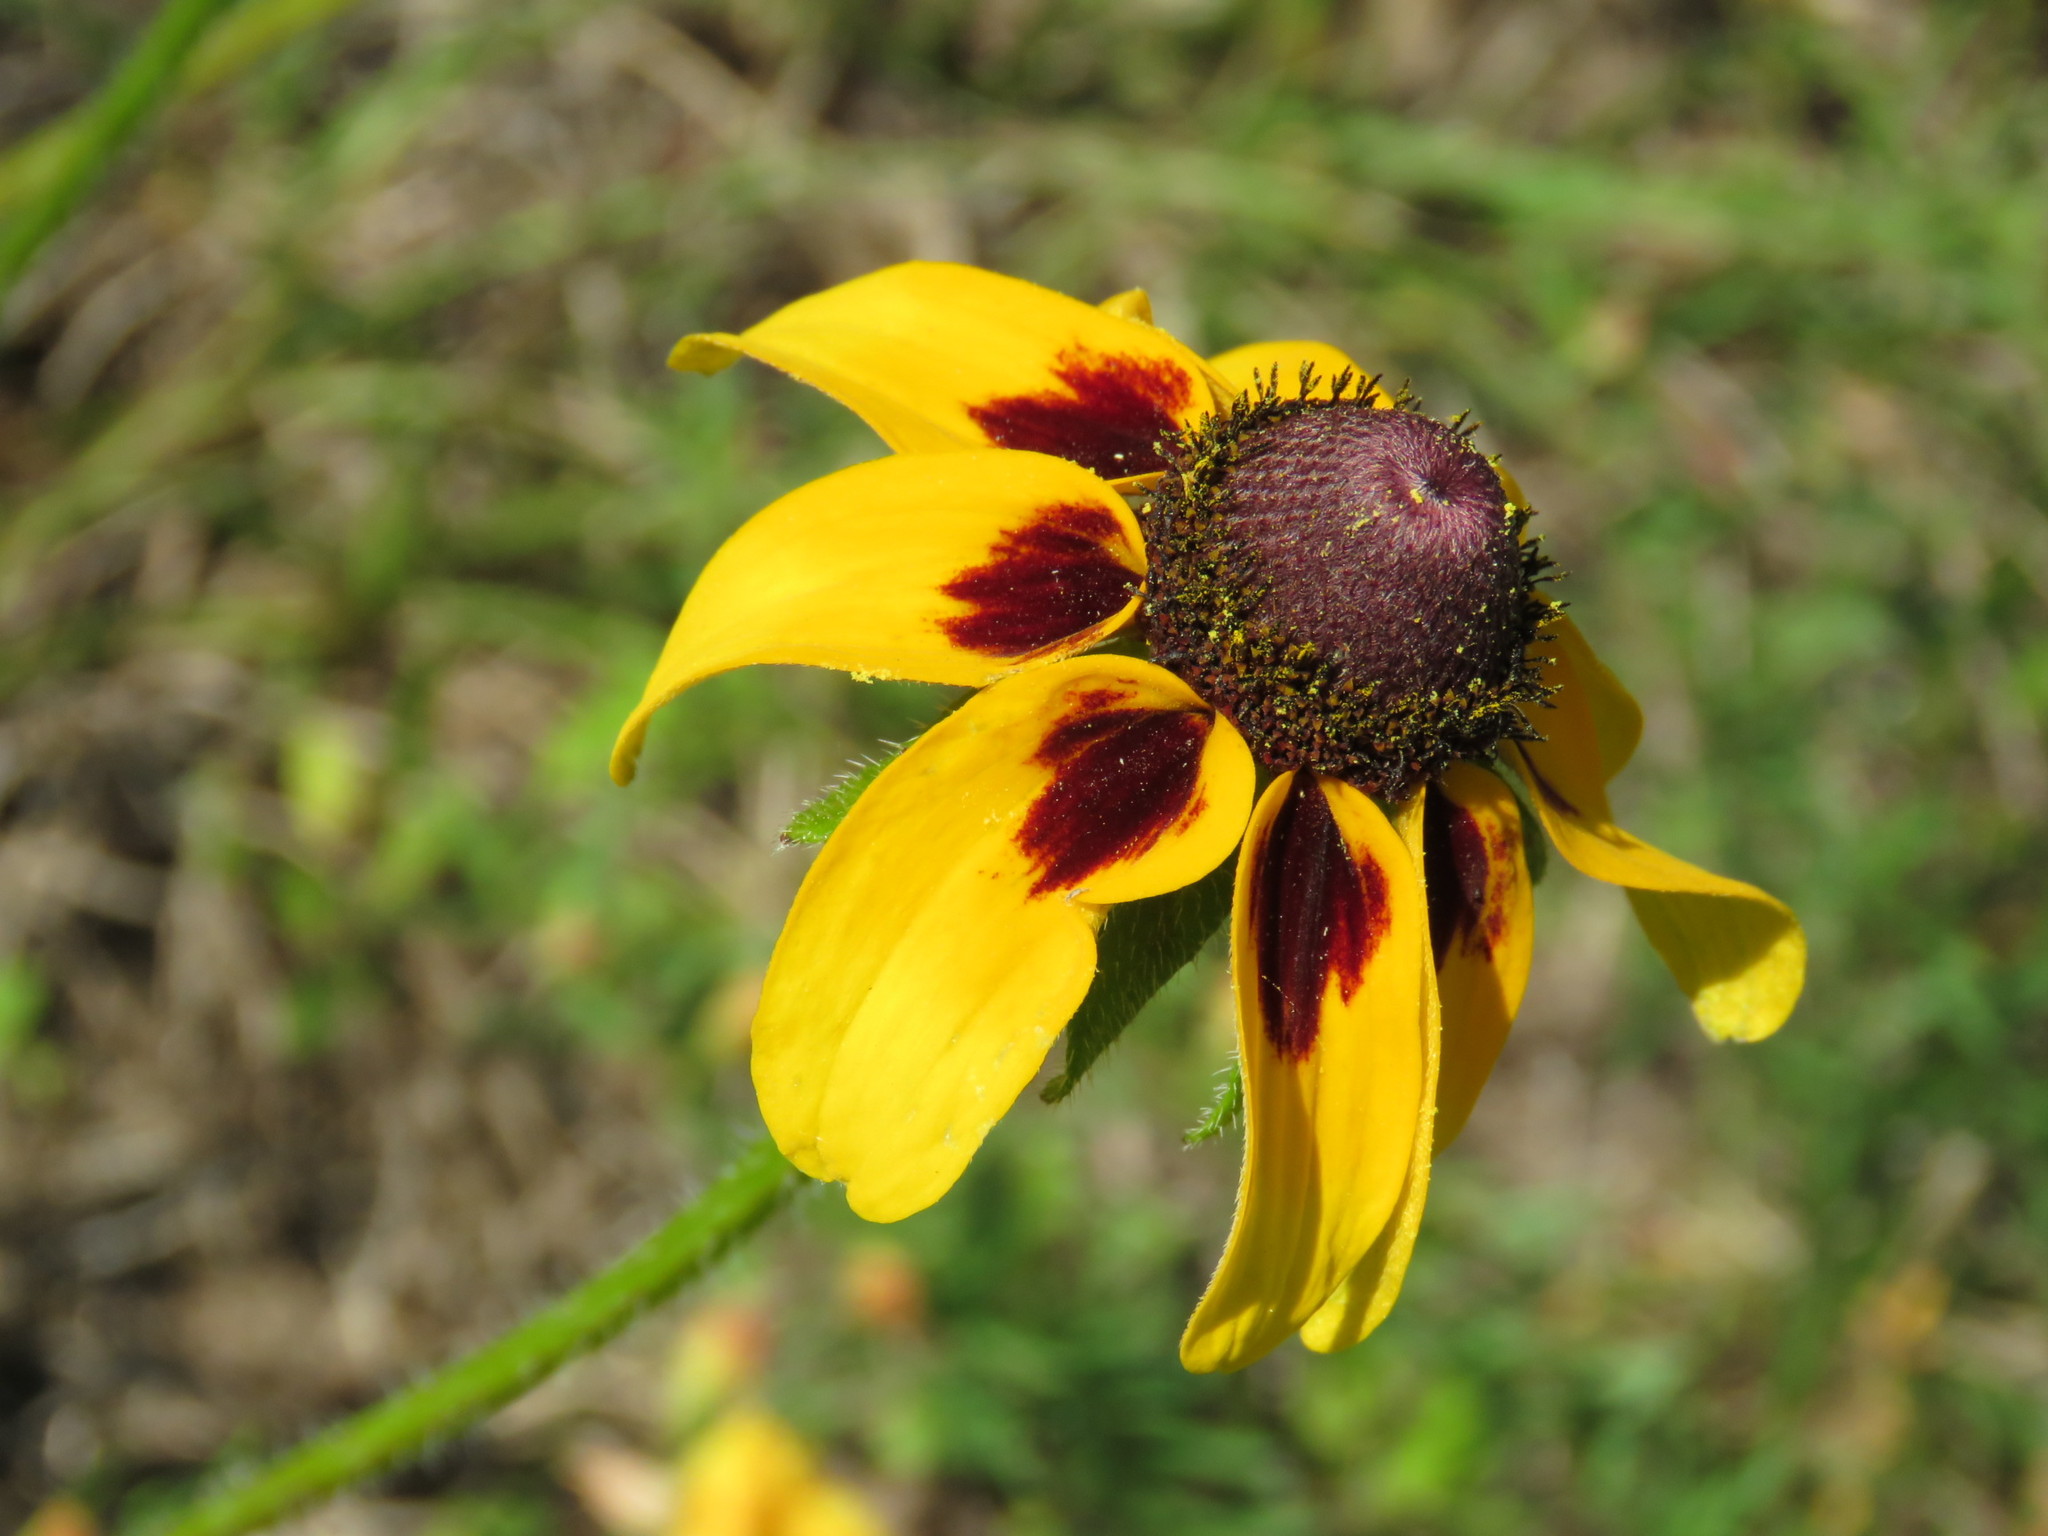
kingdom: Plantae
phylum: Tracheophyta
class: Magnoliopsida
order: Asterales
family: Asteraceae
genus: Rudbeckia
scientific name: Rudbeckia hirta
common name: Black-eyed-susan
